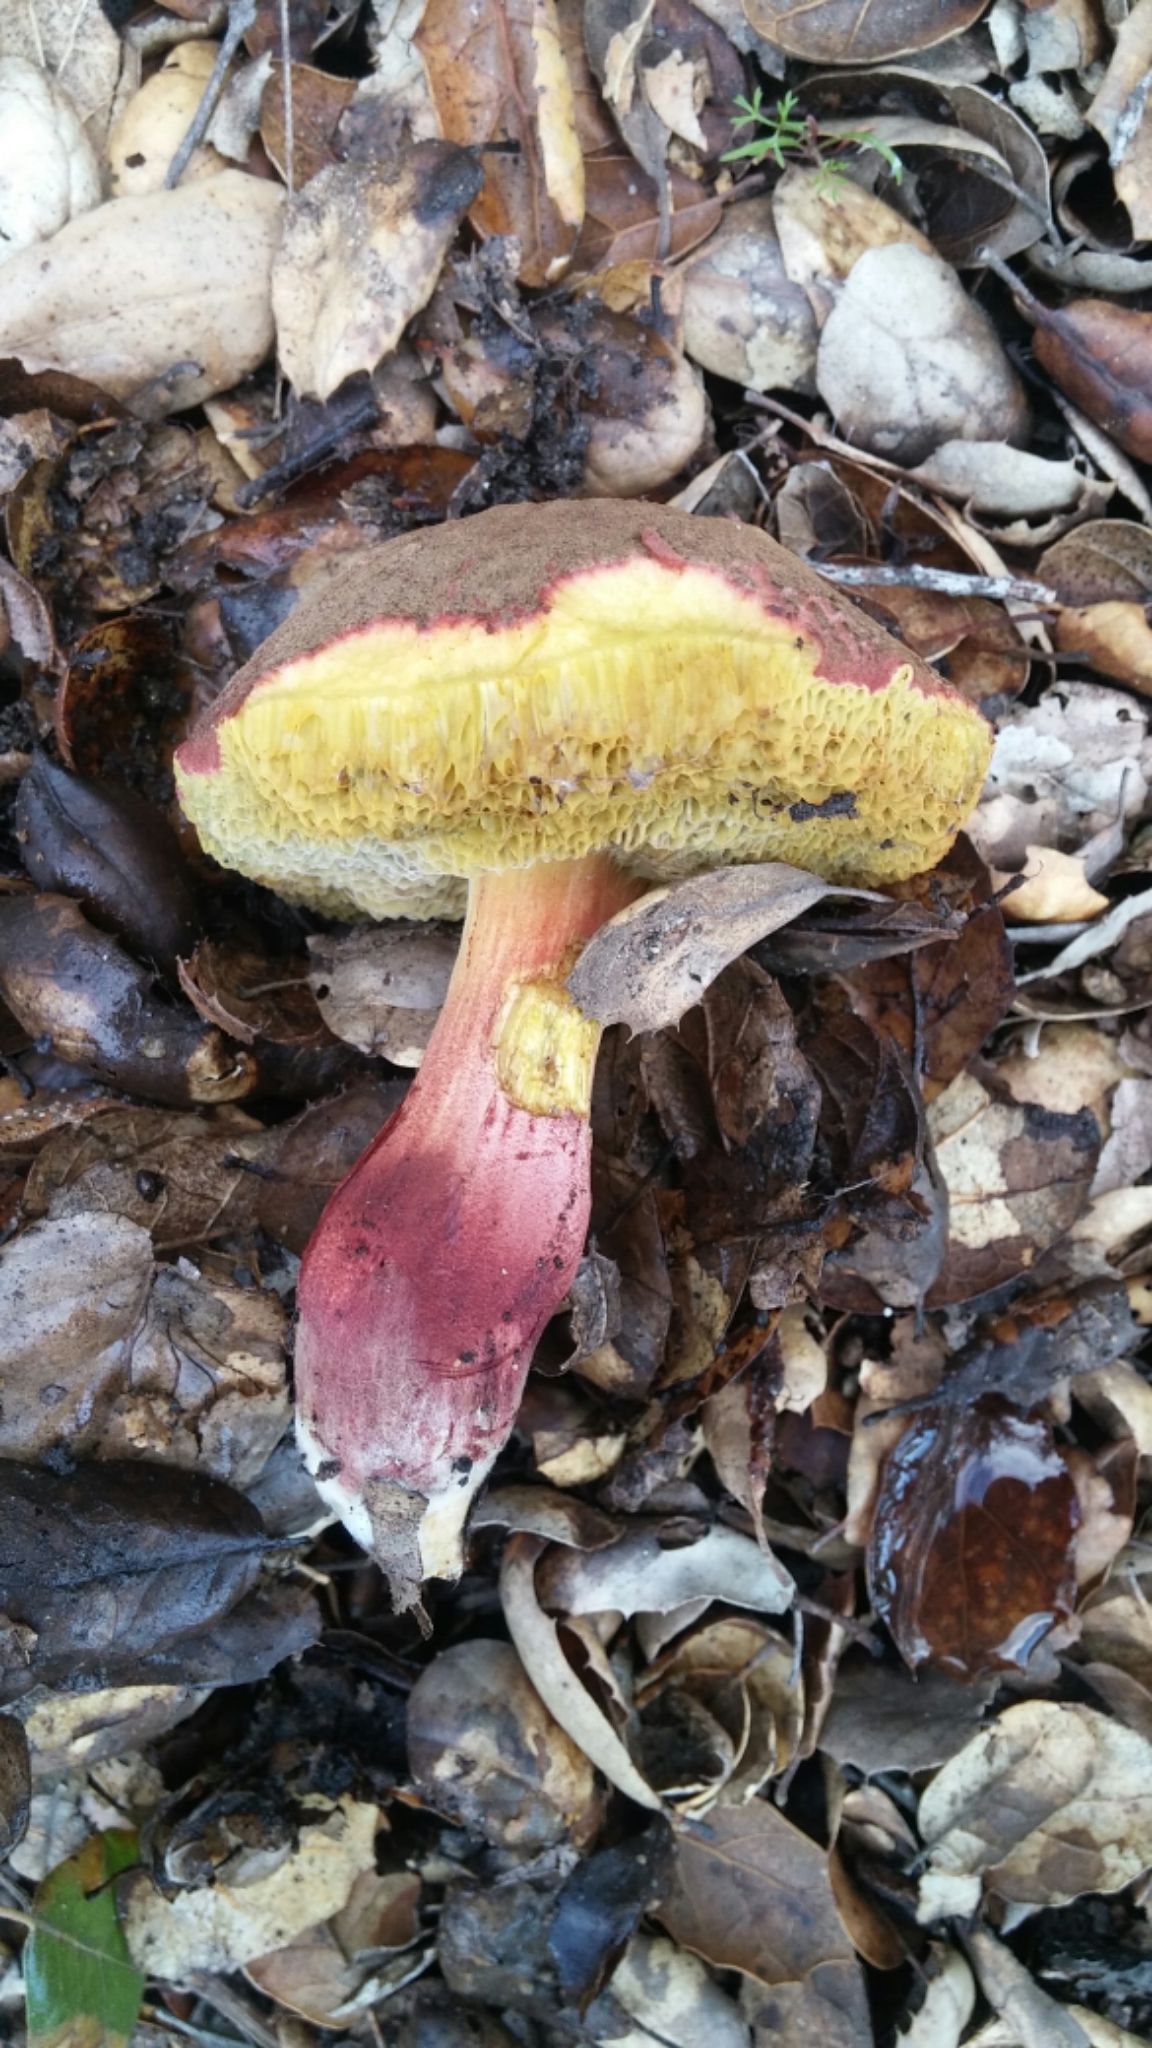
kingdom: Fungi
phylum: Basidiomycota
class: Agaricomycetes
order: Boletales
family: Boletaceae
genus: Xerocomellus
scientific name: Xerocomellus dryophilus
